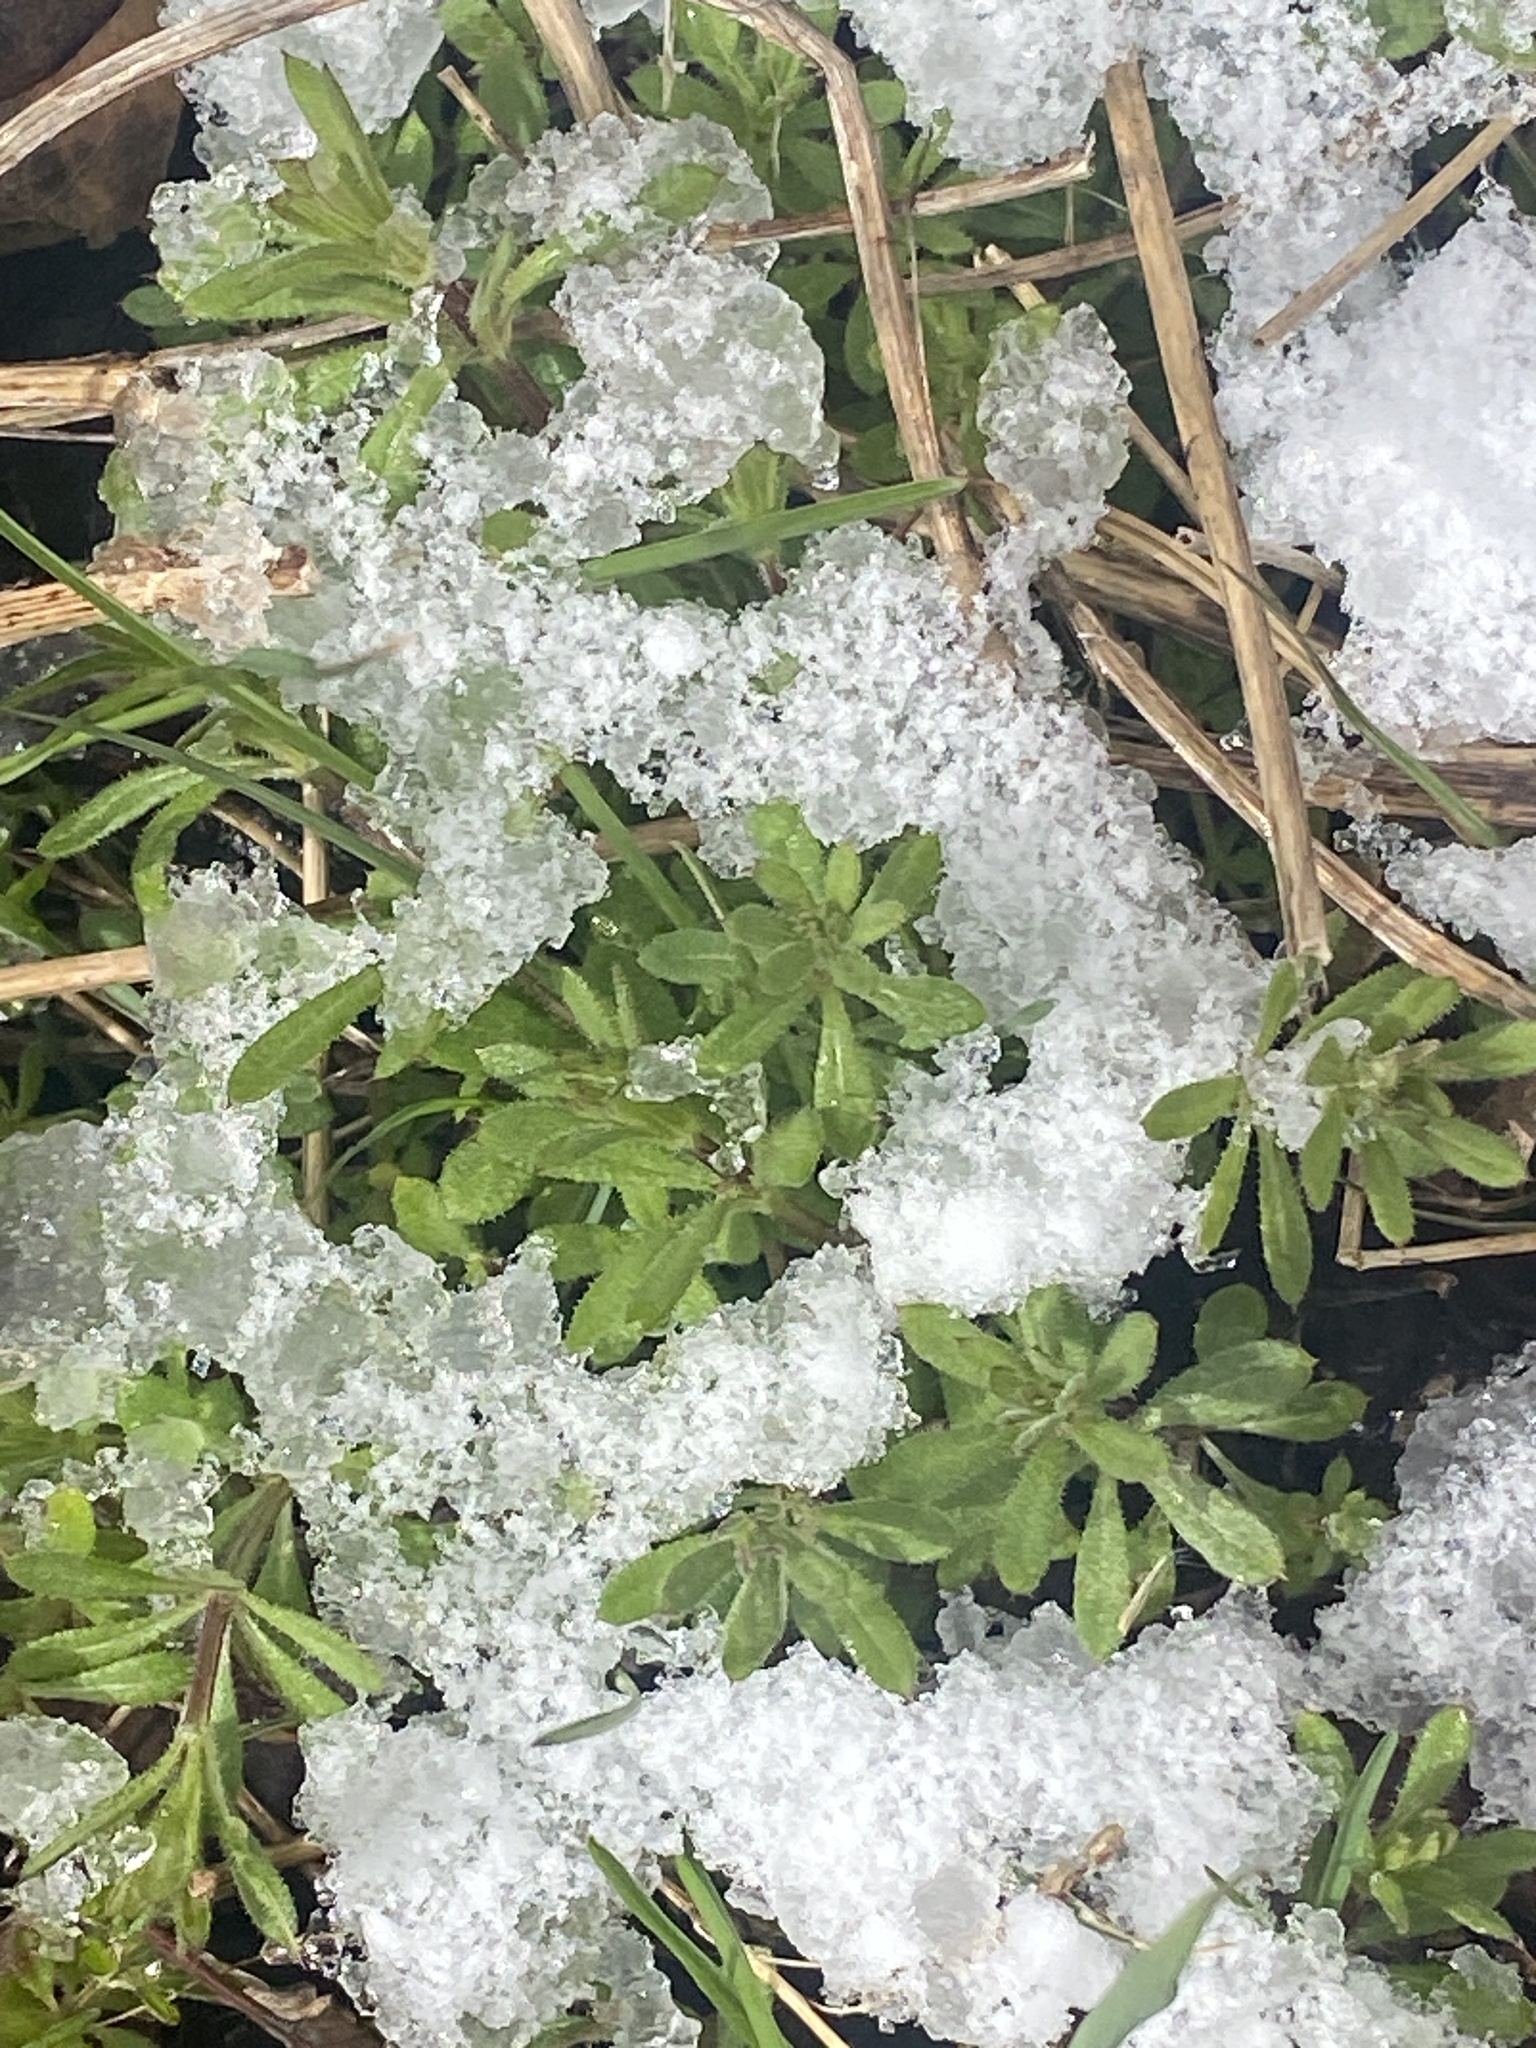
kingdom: Plantae
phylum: Tracheophyta
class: Magnoliopsida
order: Gentianales
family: Rubiaceae
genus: Galium
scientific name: Galium aparine
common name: Cleavers
